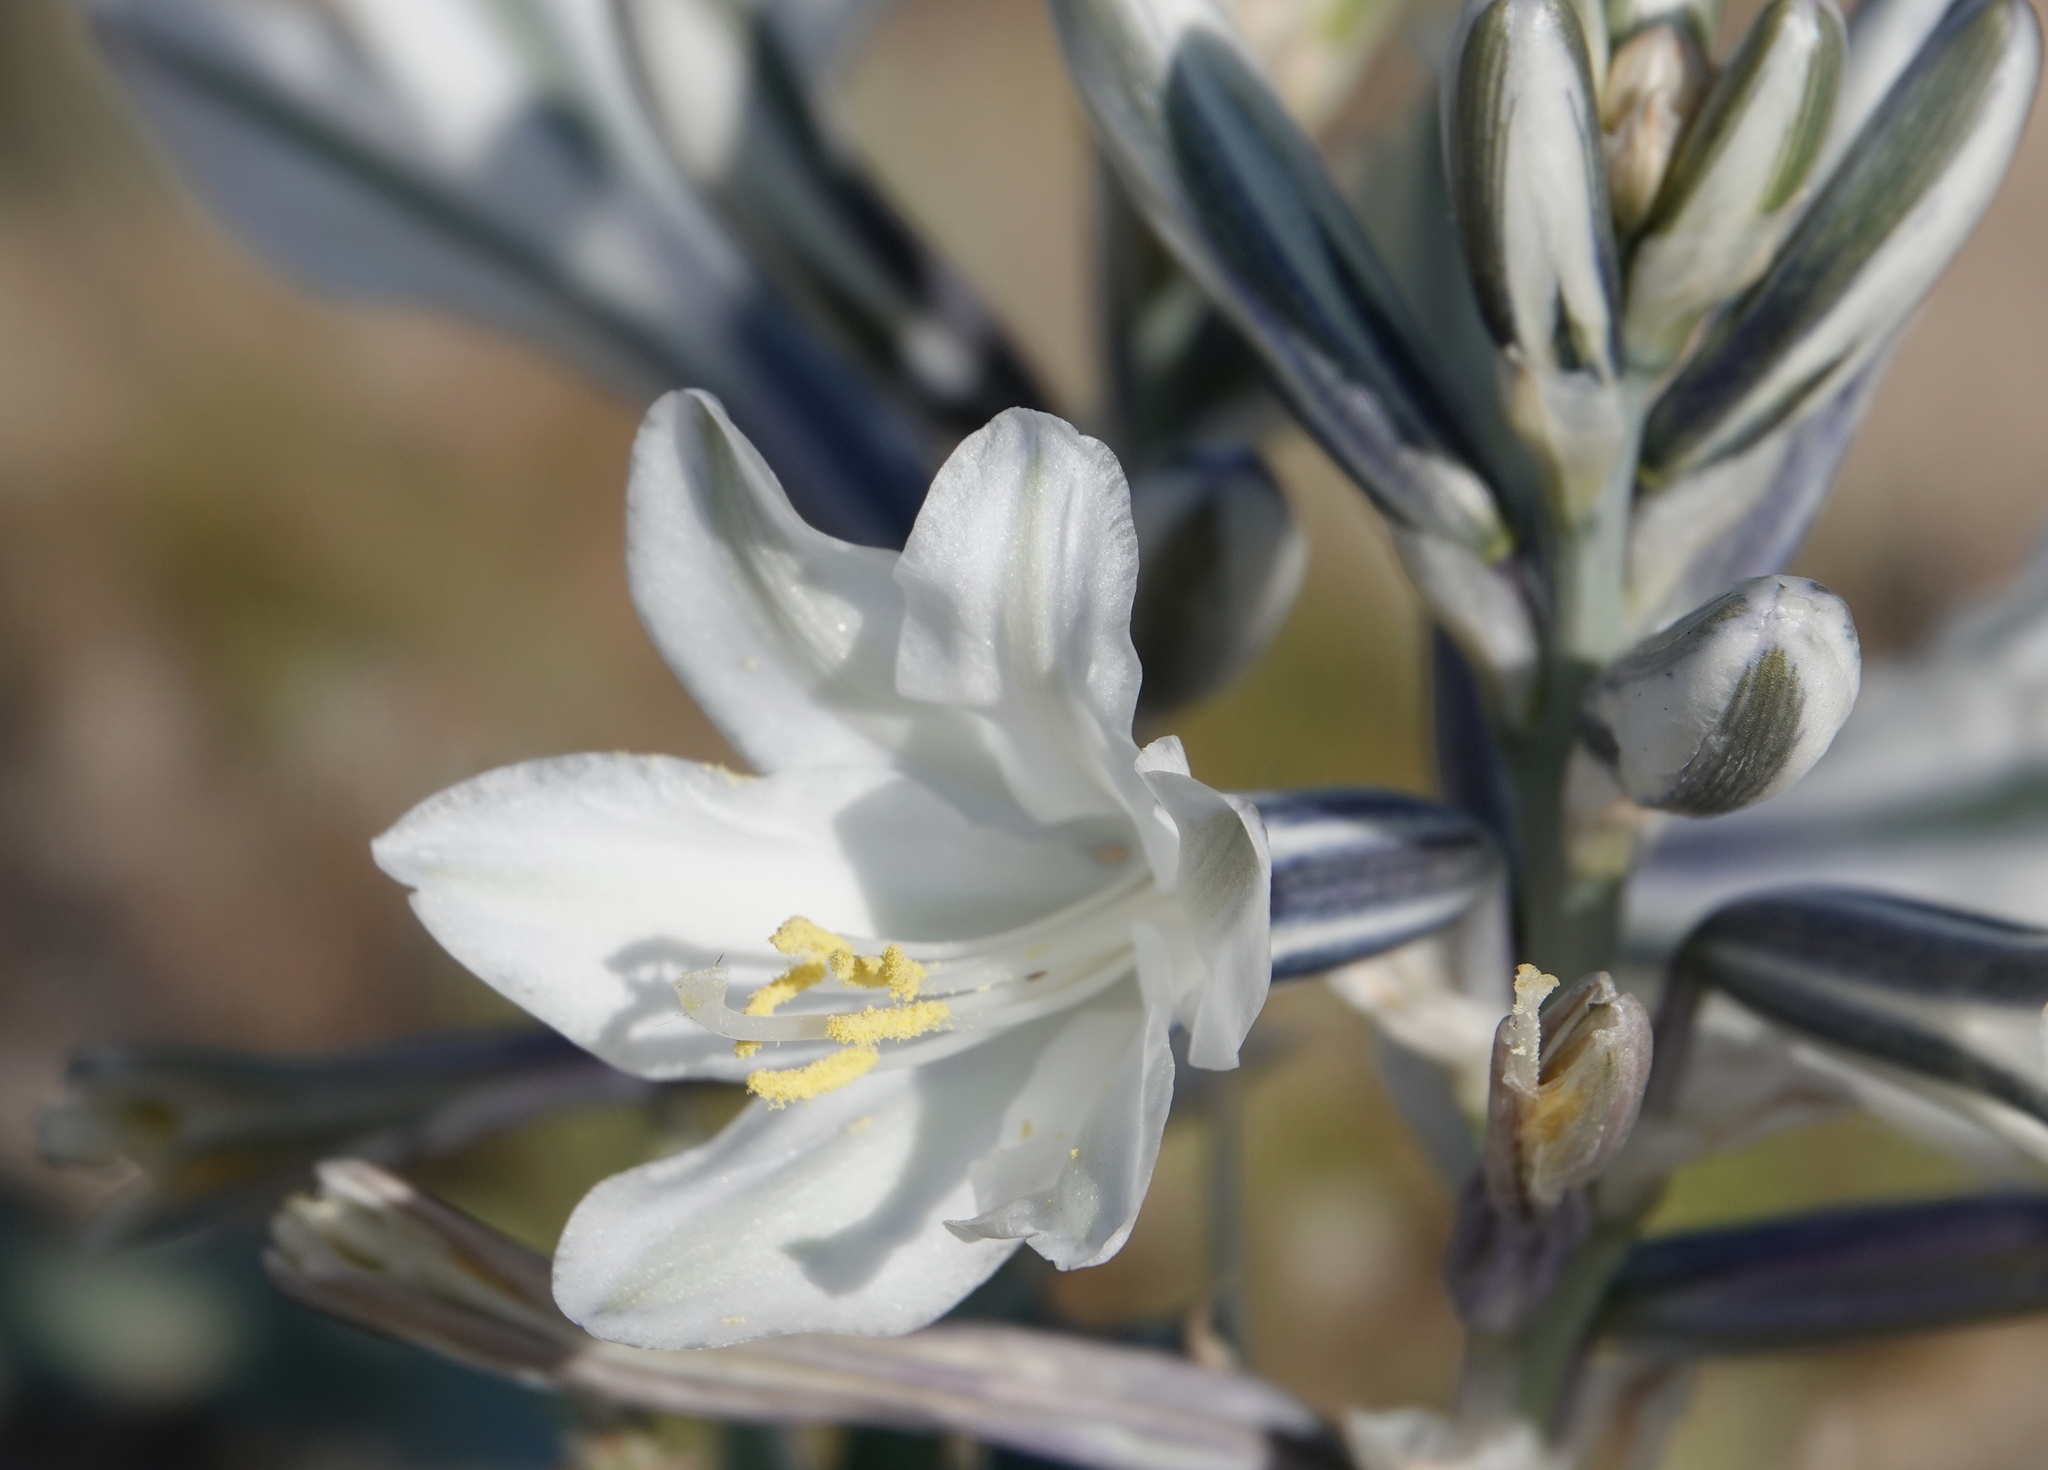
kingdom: Plantae
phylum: Tracheophyta
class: Liliopsida
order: Asparagales
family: Asparagaceae
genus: Hesperocallis
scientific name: Hesperocallis undulata
